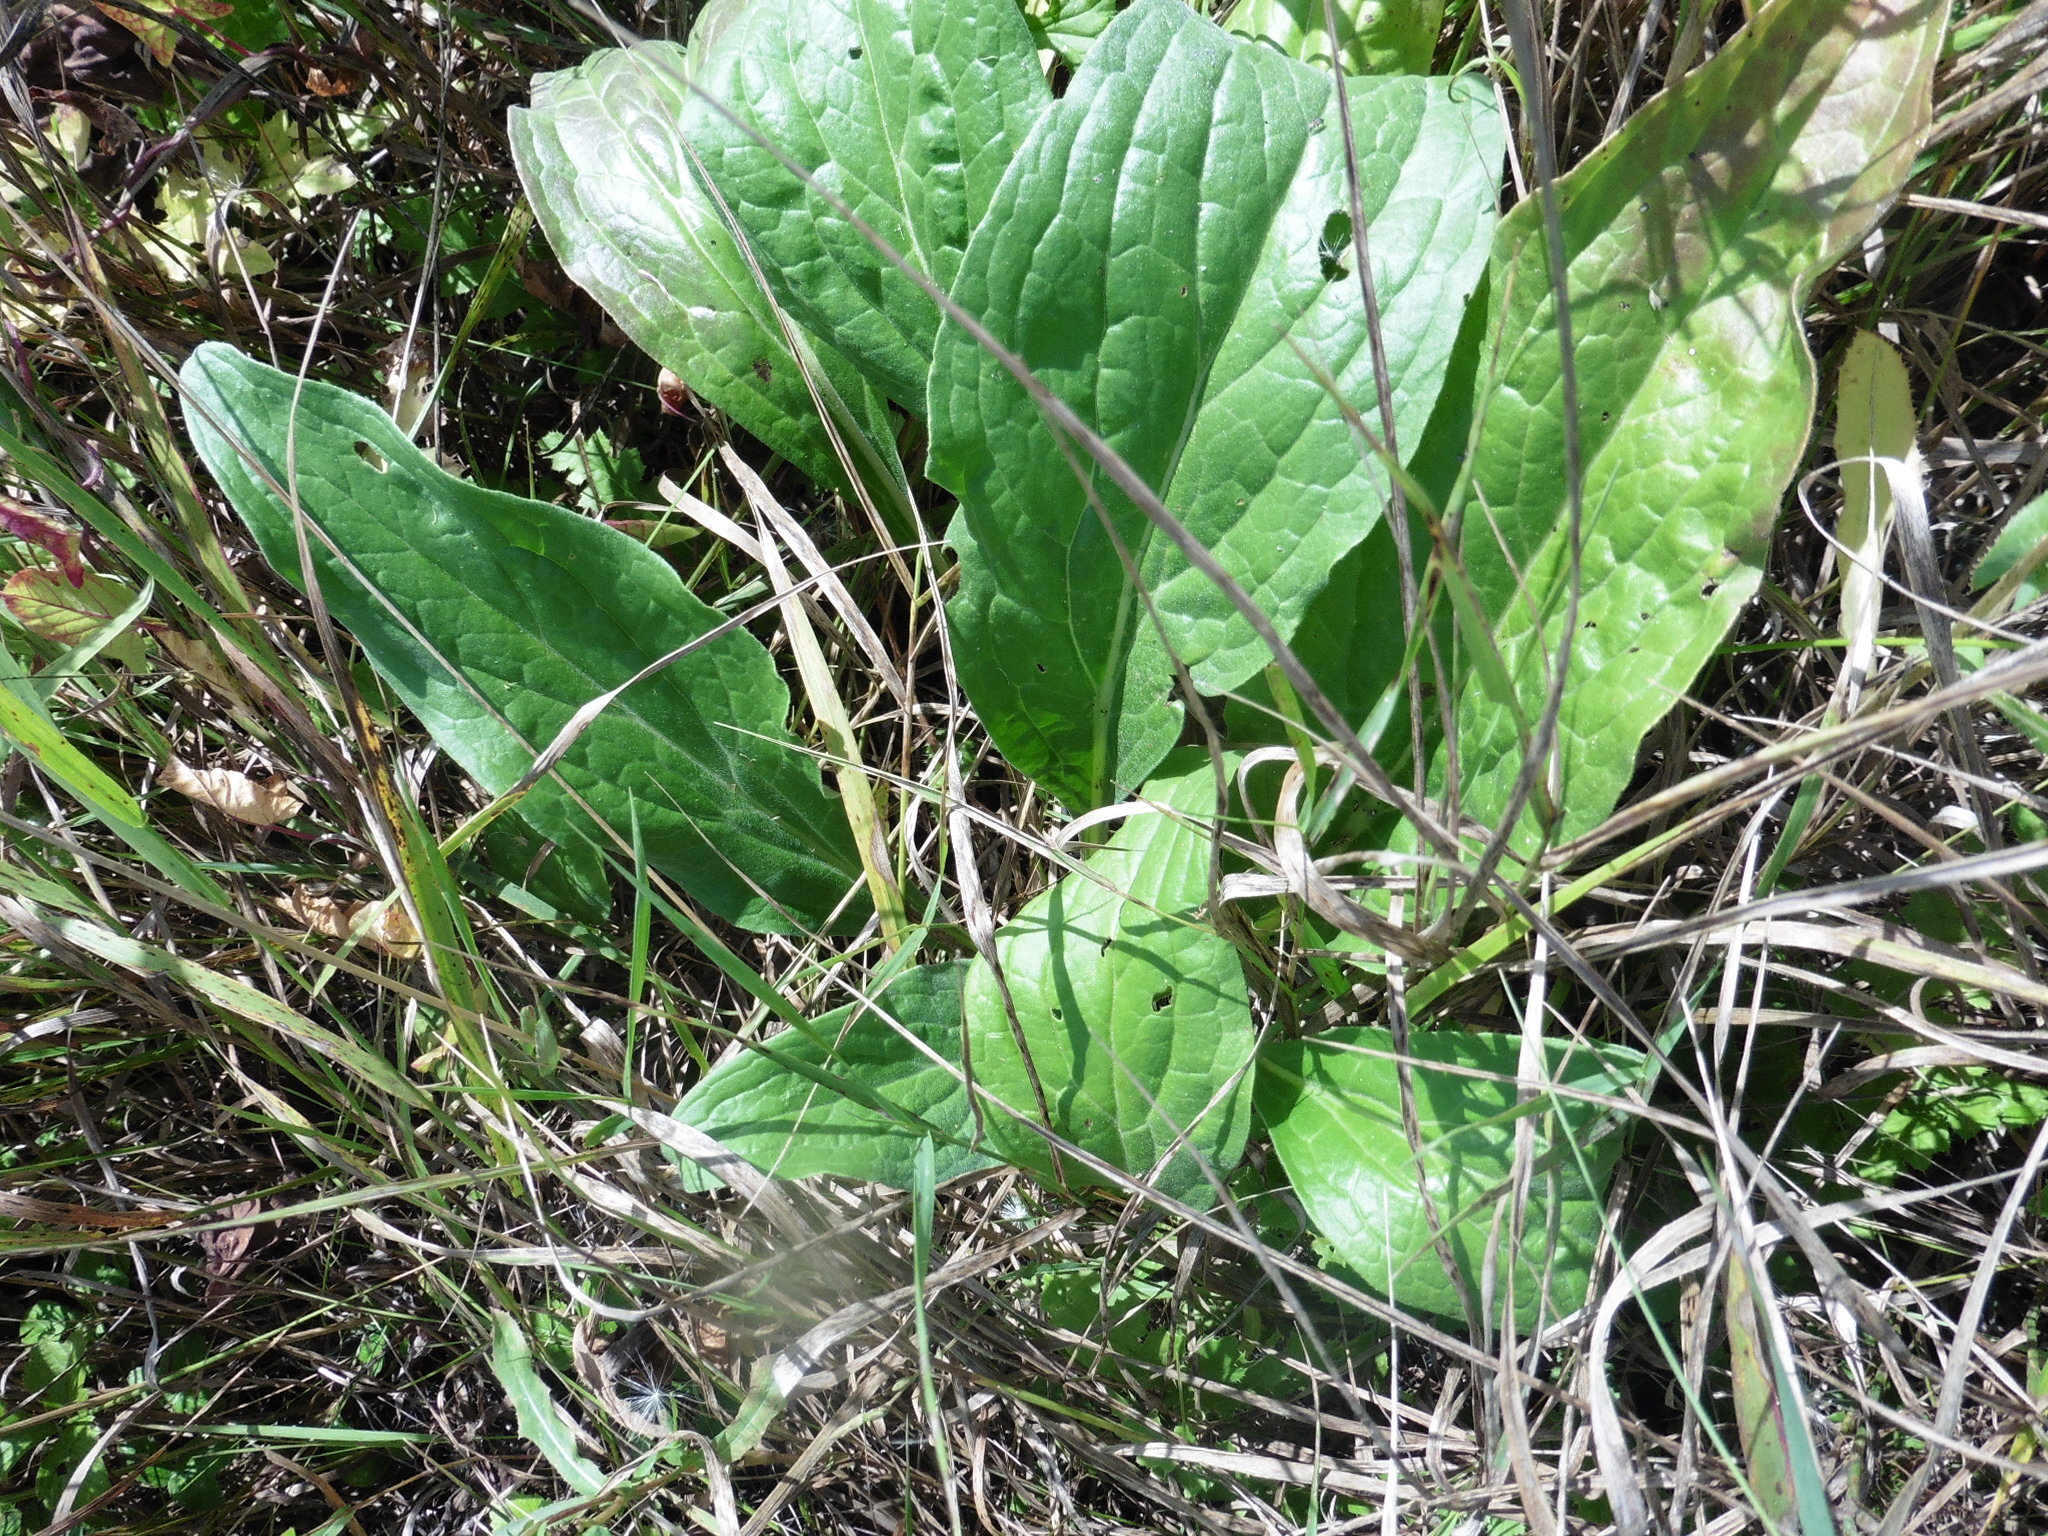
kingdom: Plantae
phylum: Tracheophyta
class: Magnoliopsida
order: Boraginales
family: Boraginaceae
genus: Cynoglossum
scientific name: Cynoglossum officinale
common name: Hound's-tongue
